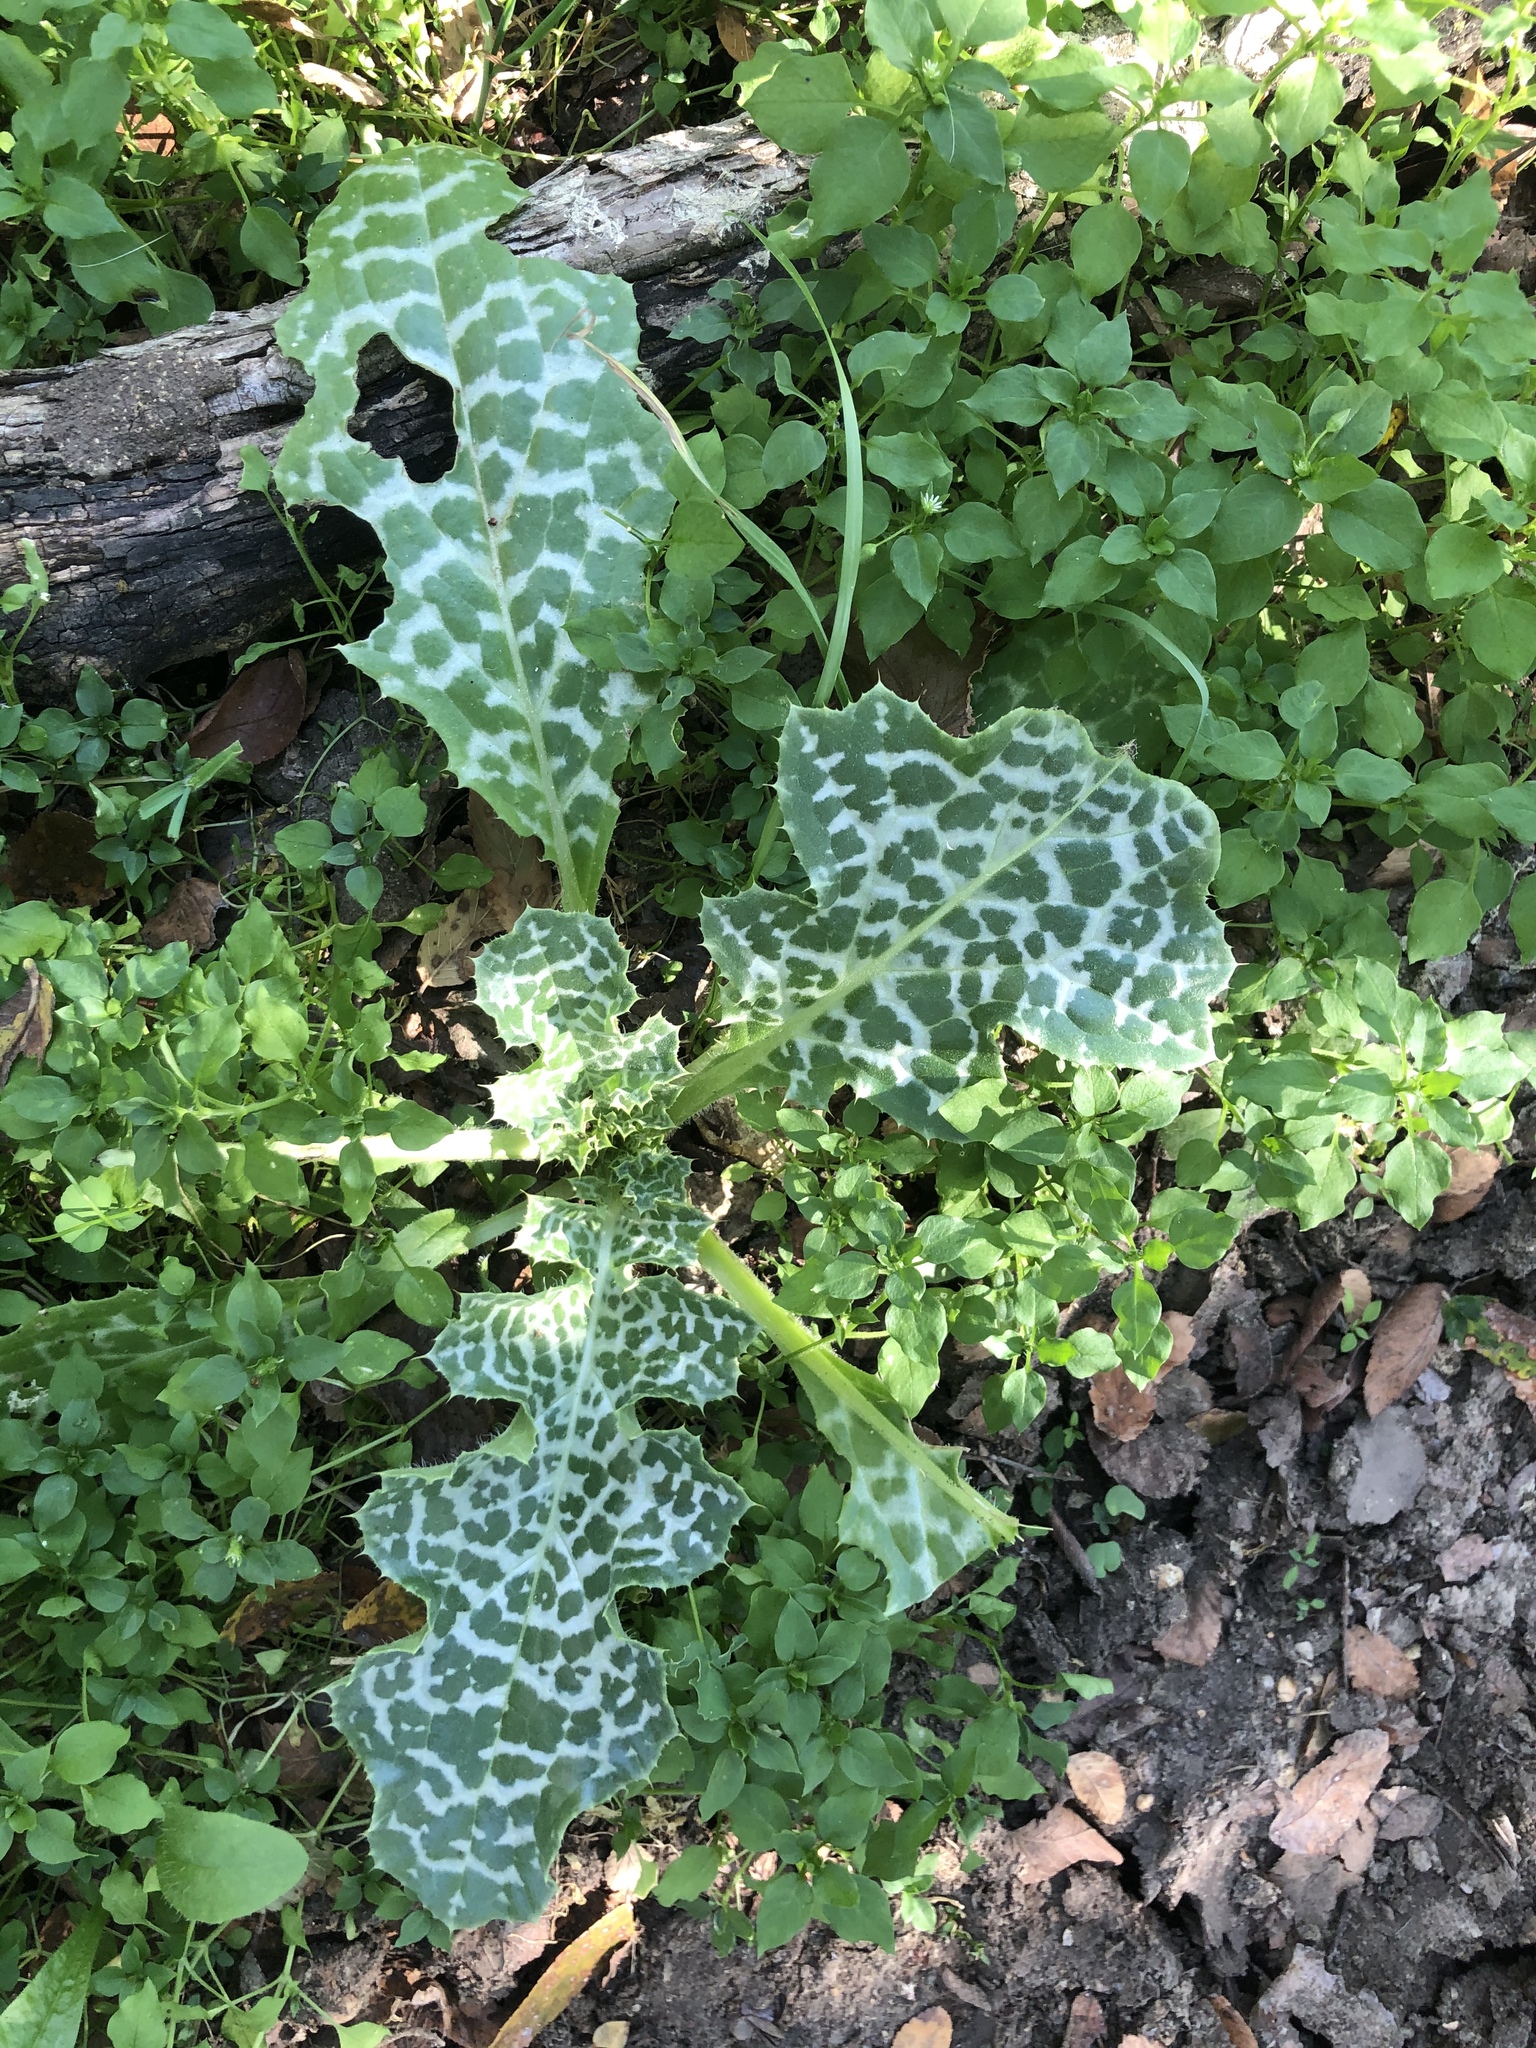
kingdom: Plantae
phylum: Tracheophyta
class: Magnoliopsida
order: Asterales
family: Asteraceae
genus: Silybum
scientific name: Silybum marianum
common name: Milk thistle
